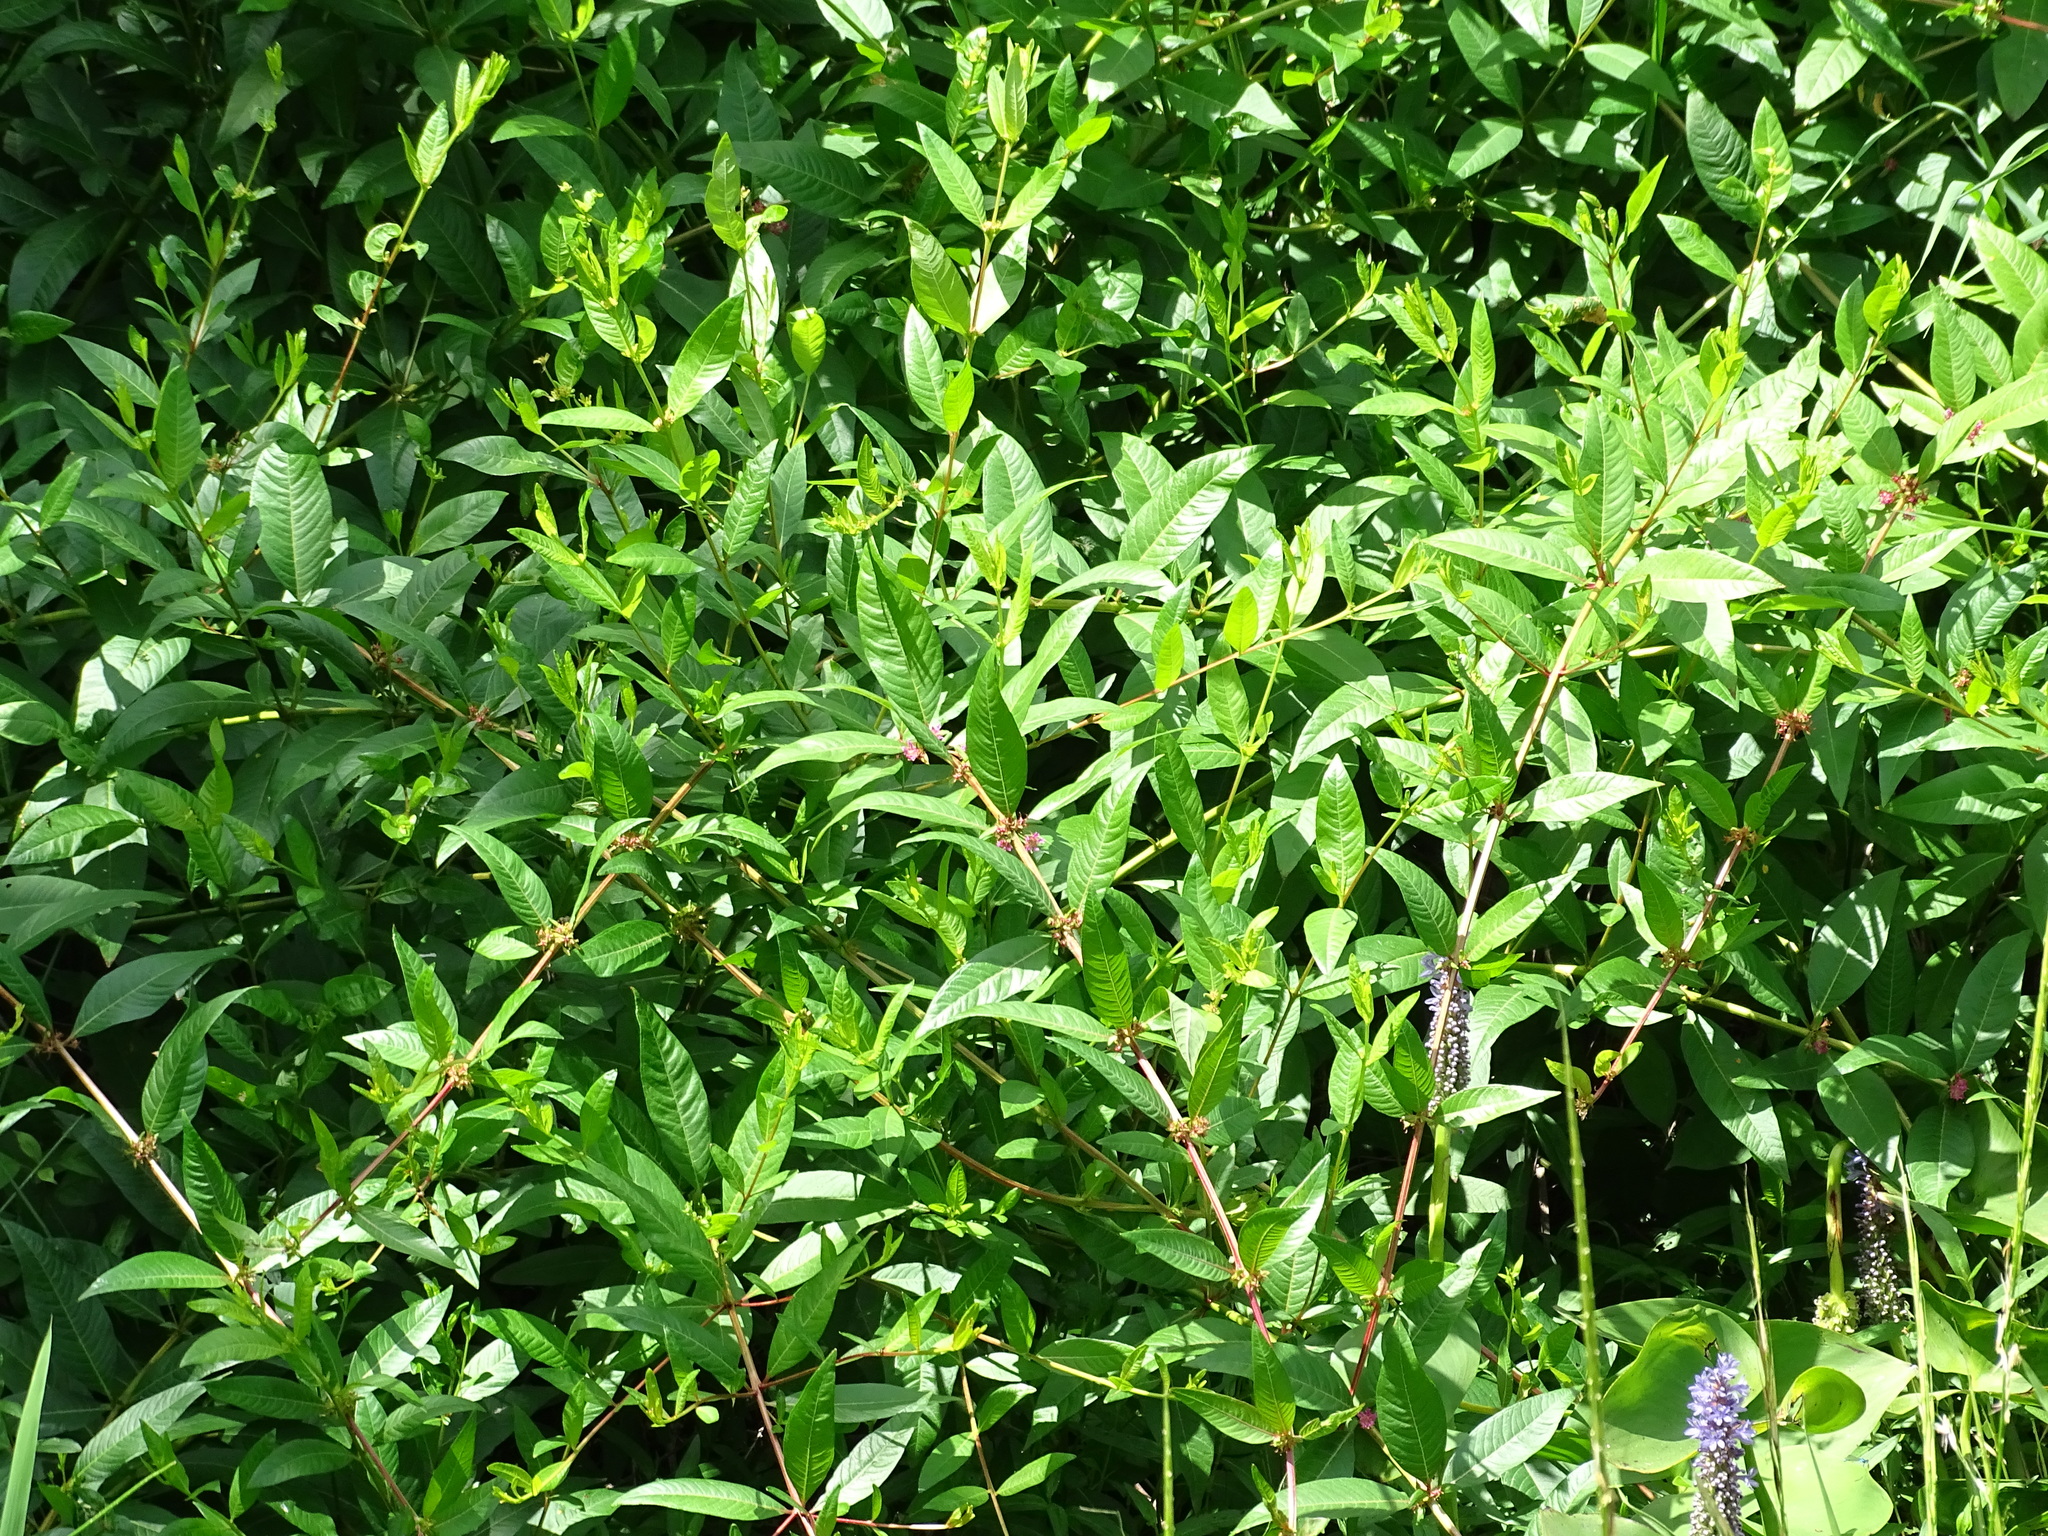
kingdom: Plantae
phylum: Tracheophyta
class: Magnoliopsida
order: Myrtales
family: Lythraceae
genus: Decodon
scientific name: Decodon verticillatus
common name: Hairy swamp loosestrife
